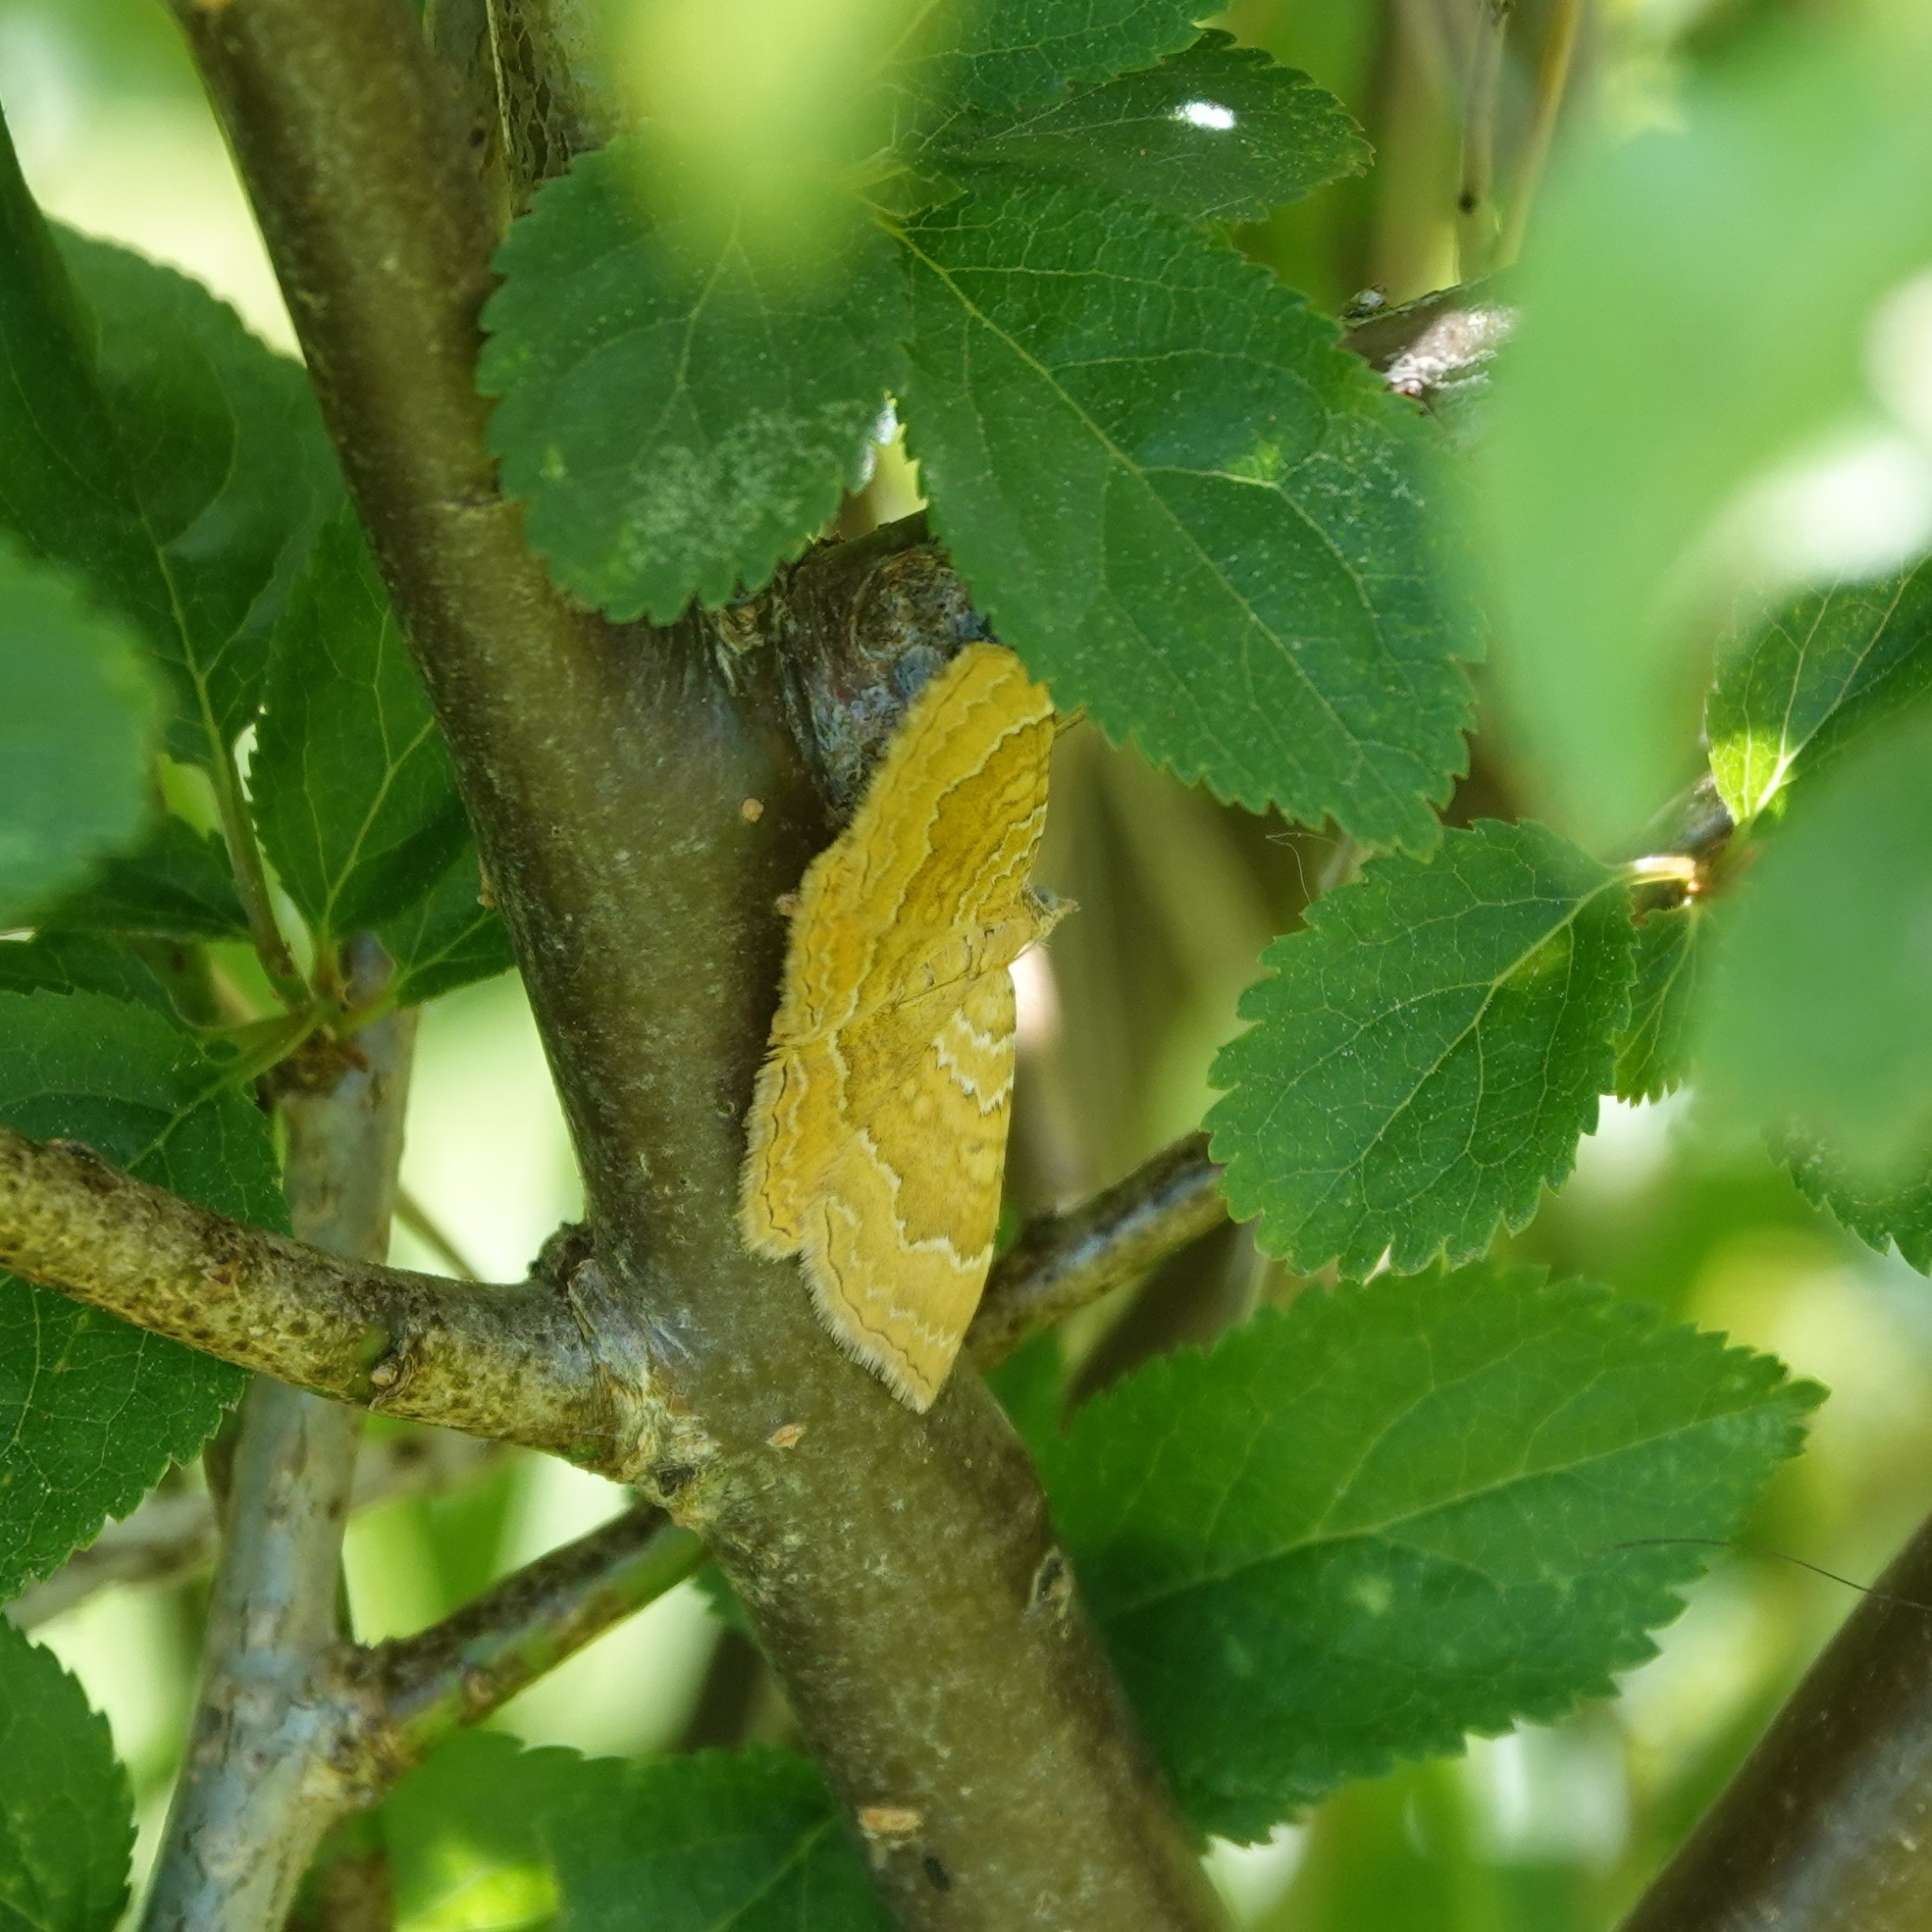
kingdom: Animalia
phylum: Arthropoda
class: Insecta
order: Lepidoptera
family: Geometridae
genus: Camptogramma
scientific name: Camptogramma bilineata
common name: Yellow shell
